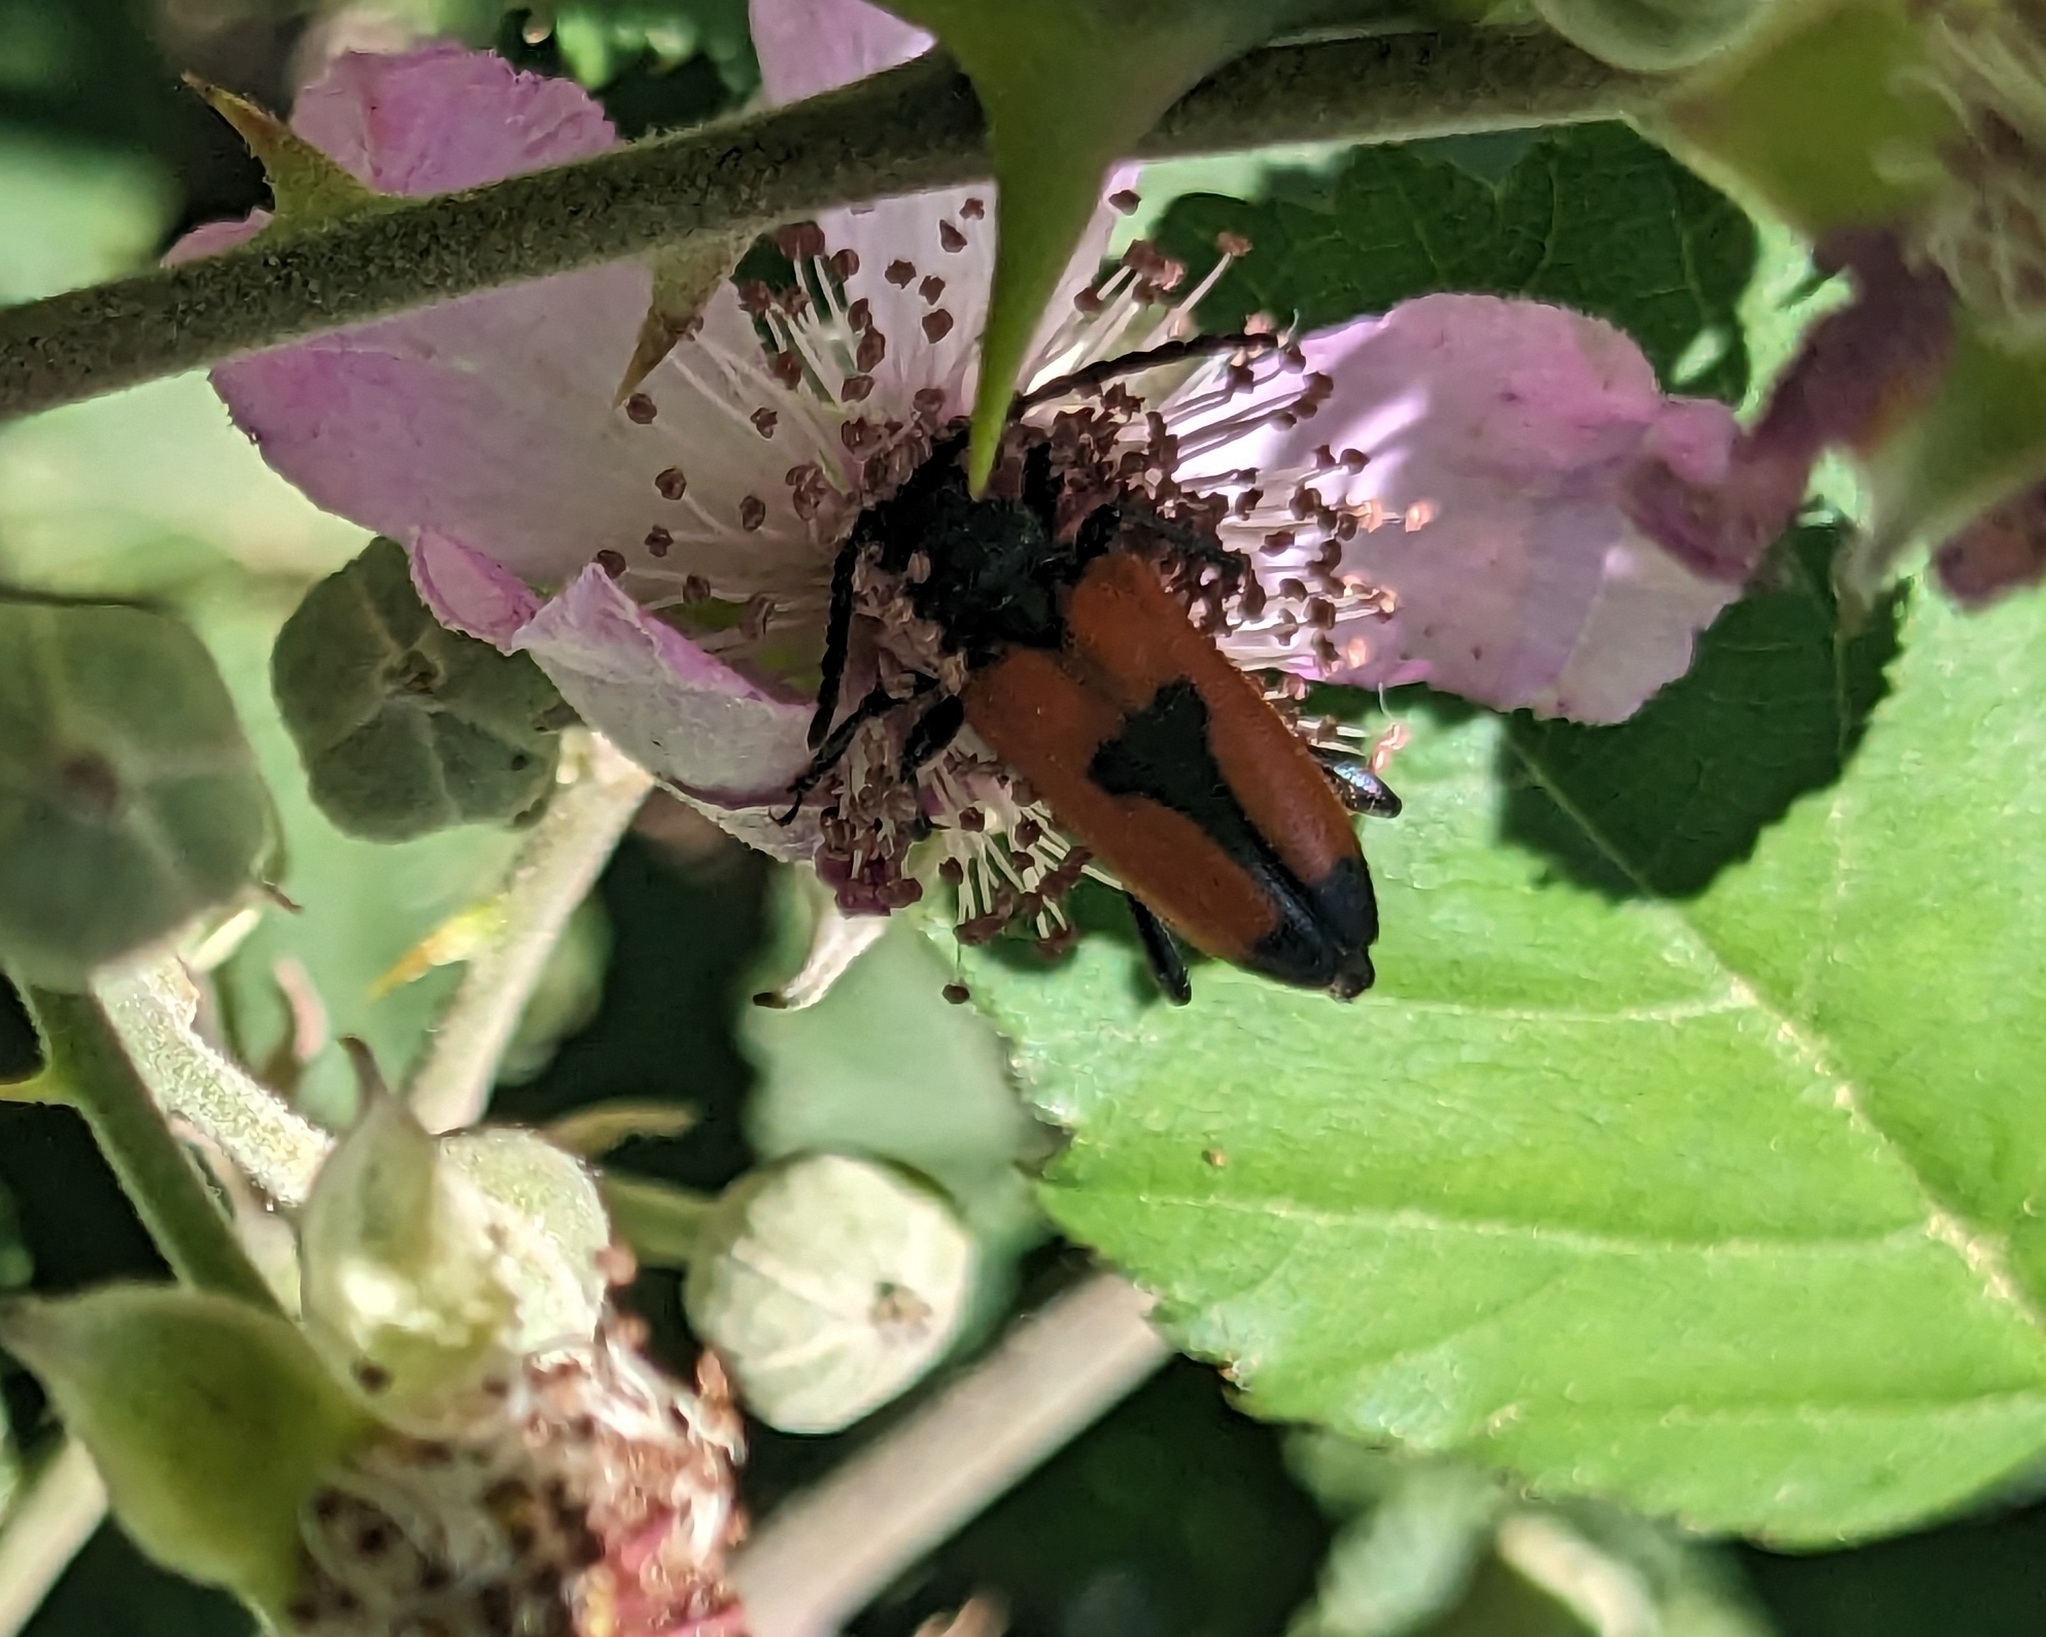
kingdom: Animalia
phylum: Arthropoda
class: Insecta
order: Coleoptera
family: Cerambycidae
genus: Stictoleptura
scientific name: Stictoleptura cordigera
